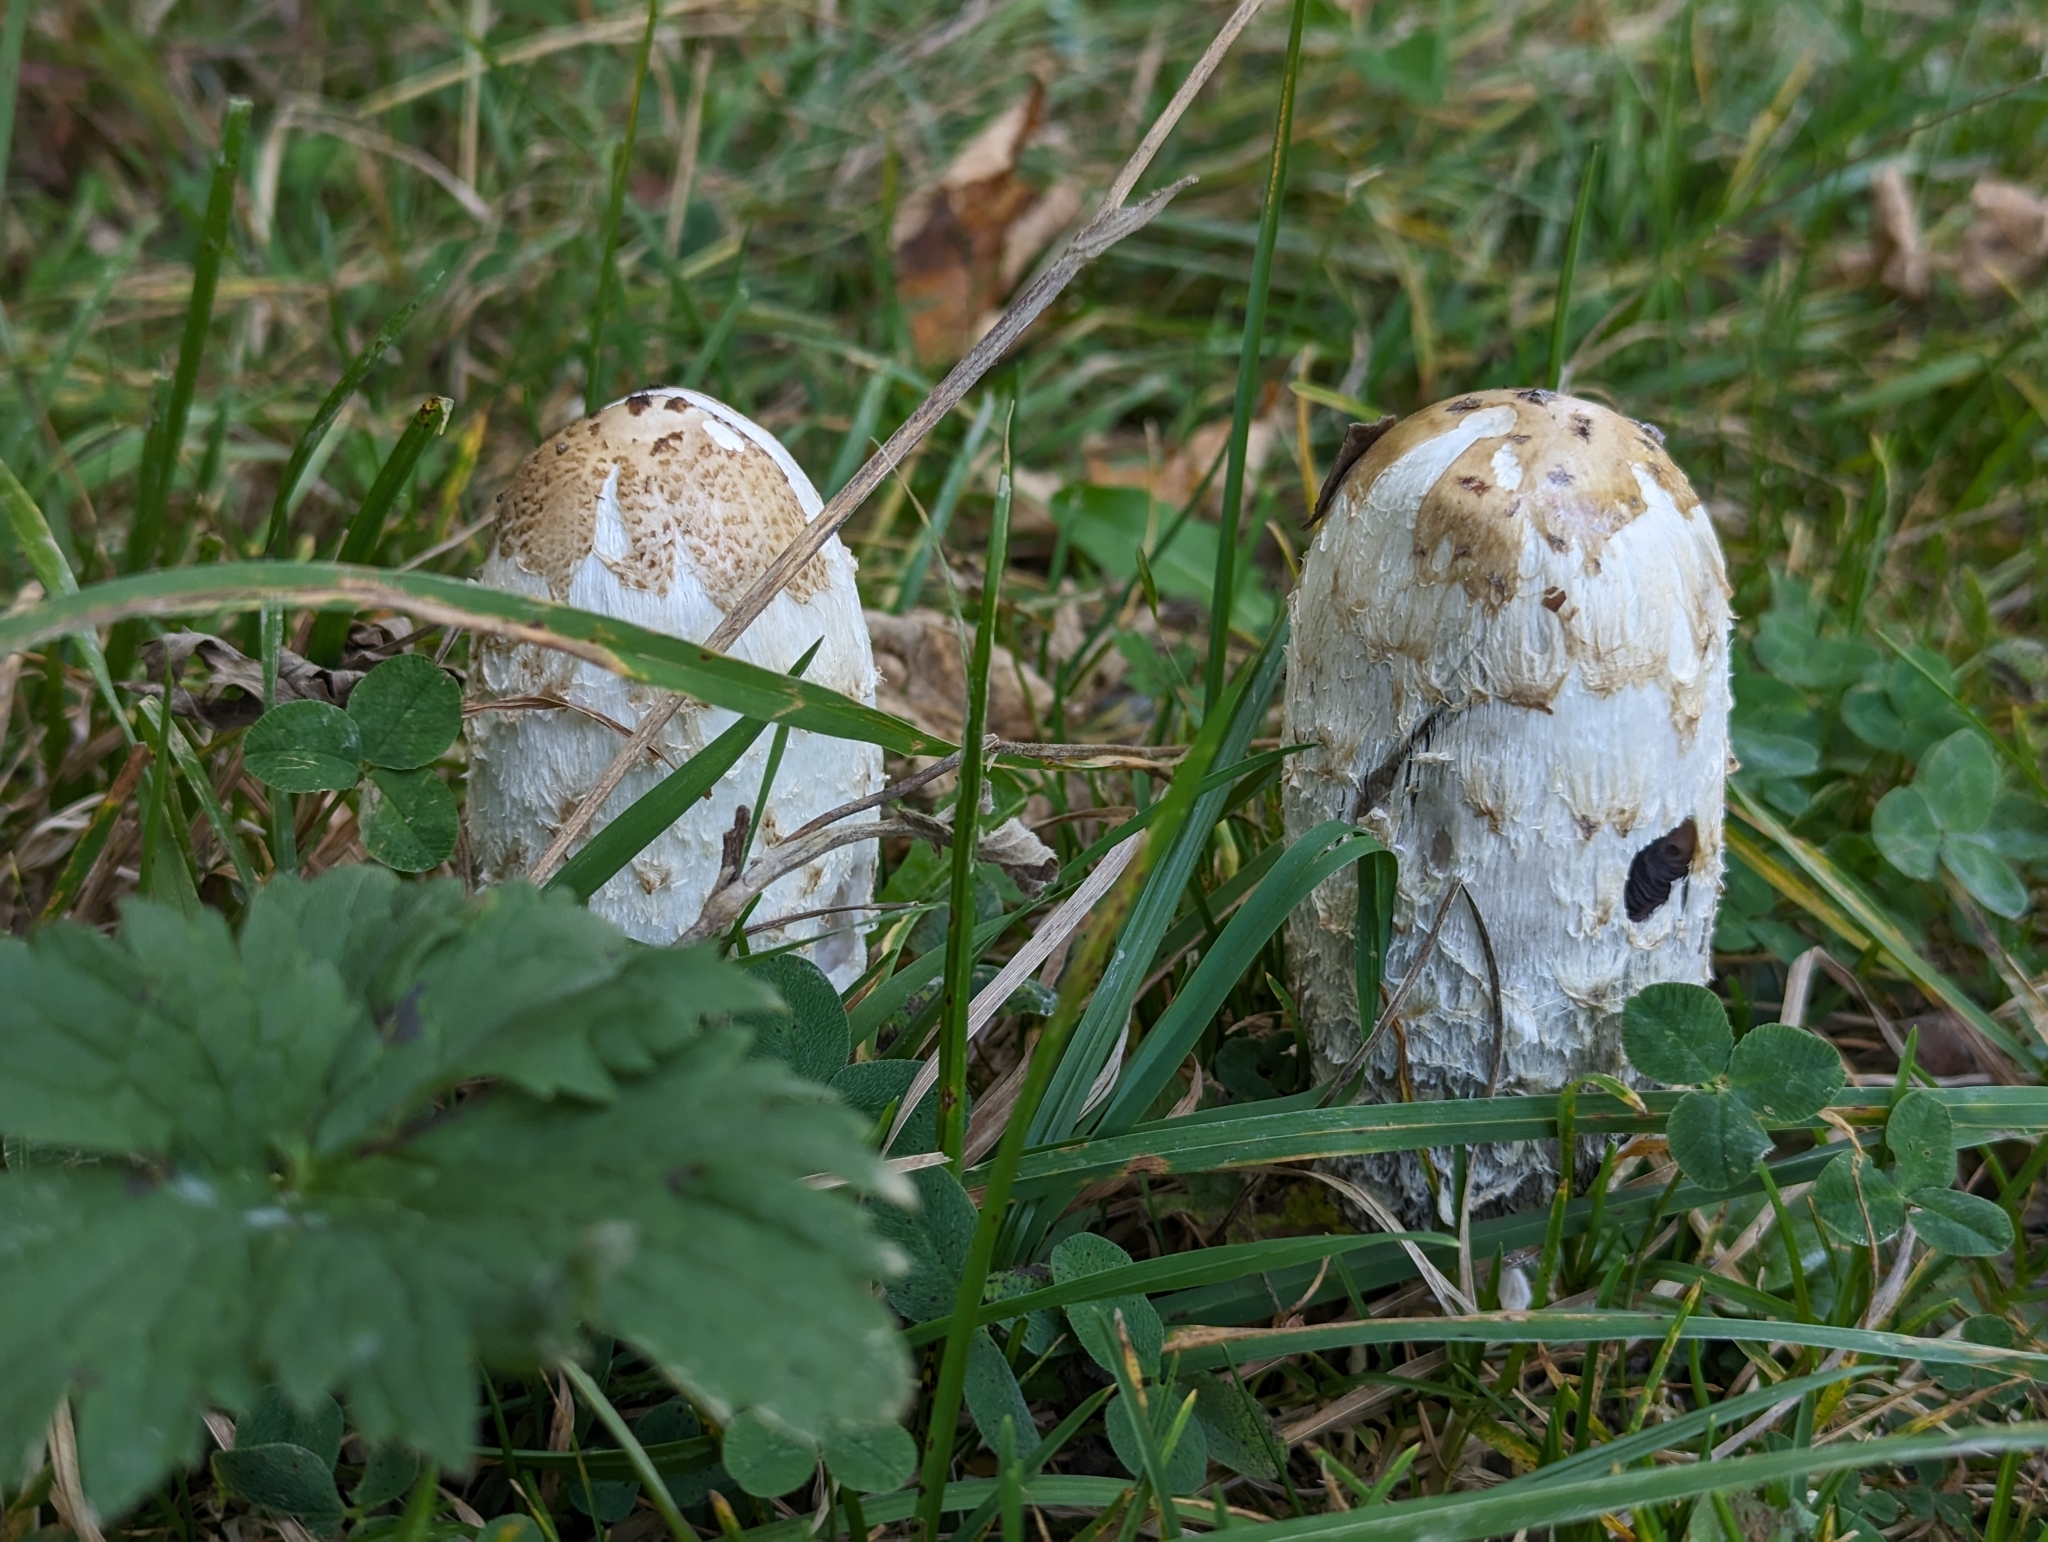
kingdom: Fungi
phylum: Basidiomycota
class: Agaricomycetes
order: Agaricales
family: Agaricaceae
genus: Coprinus
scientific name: Coprinus comatus
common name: Lawyer's wig
